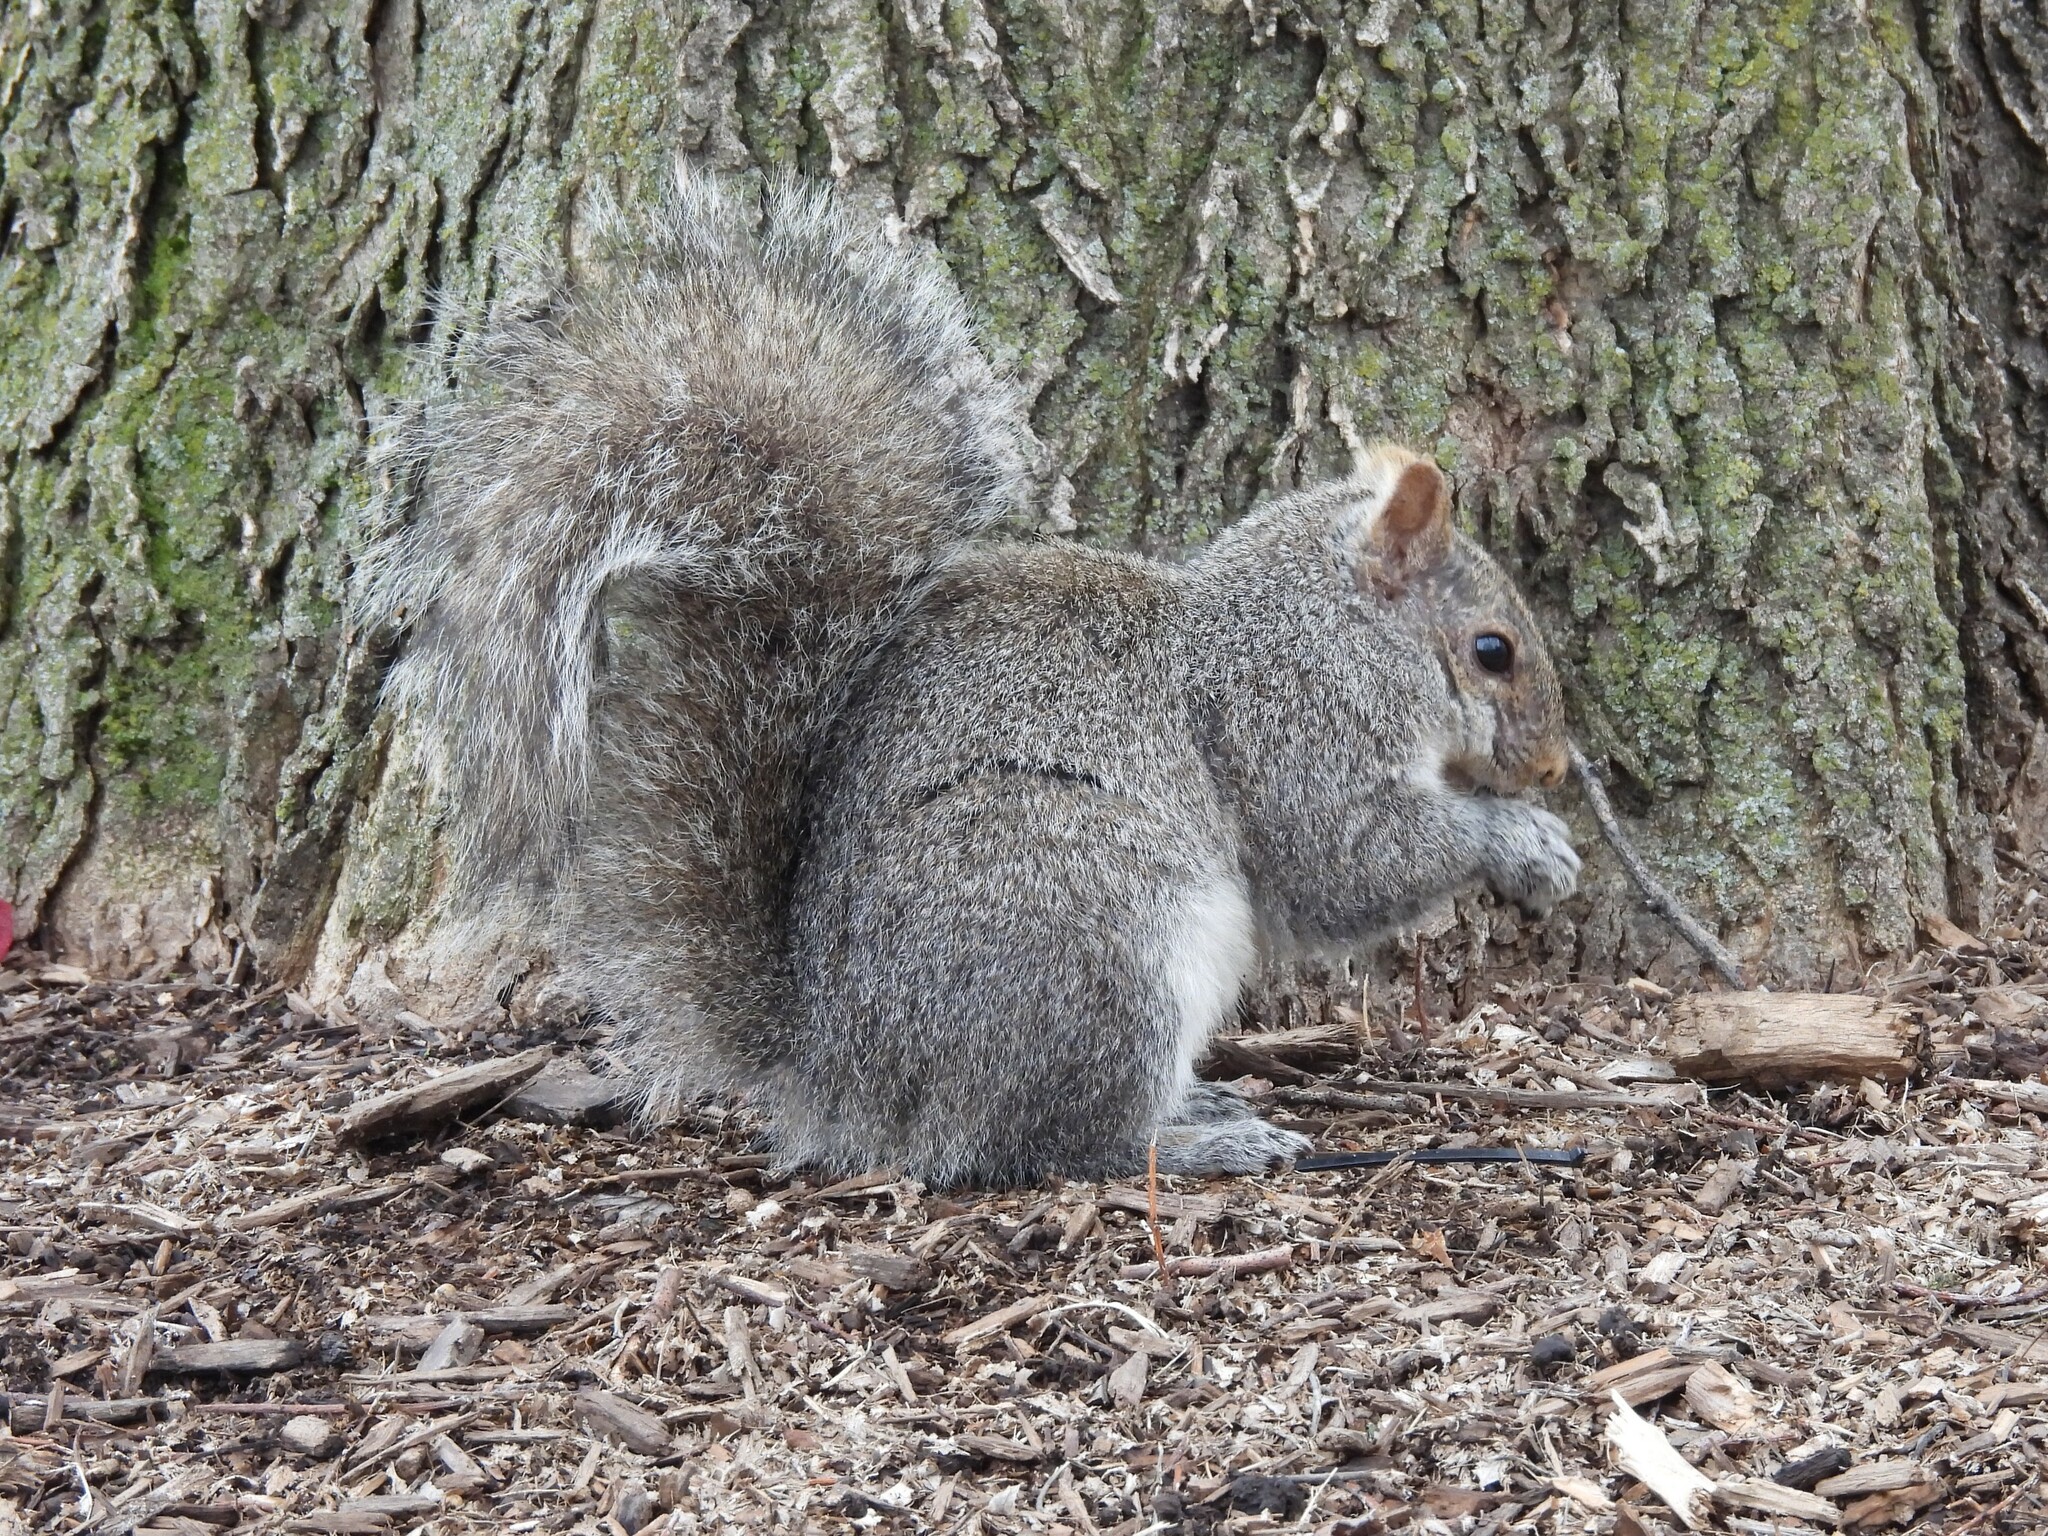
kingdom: Animalia
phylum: Chordata
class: Mammalia
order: Rodentia
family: Sciuridae
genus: Sciurus
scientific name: Sciurus carolinensis
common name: Eastern gray squirrel
